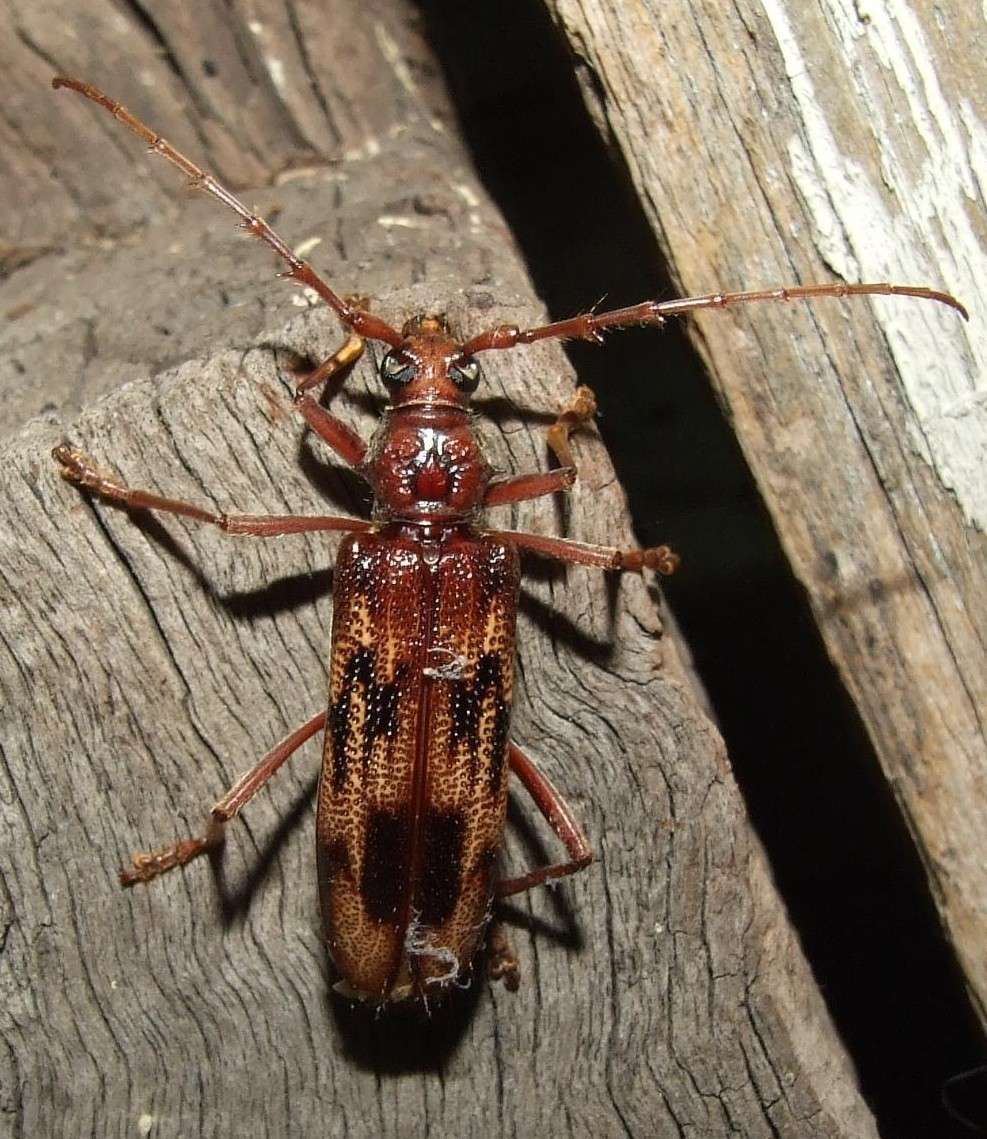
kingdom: Animalia
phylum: Arthropoda
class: Insecta
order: Coleoptera
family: Cerambycidae
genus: Phoracantha
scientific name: Phoracantha synonyma
